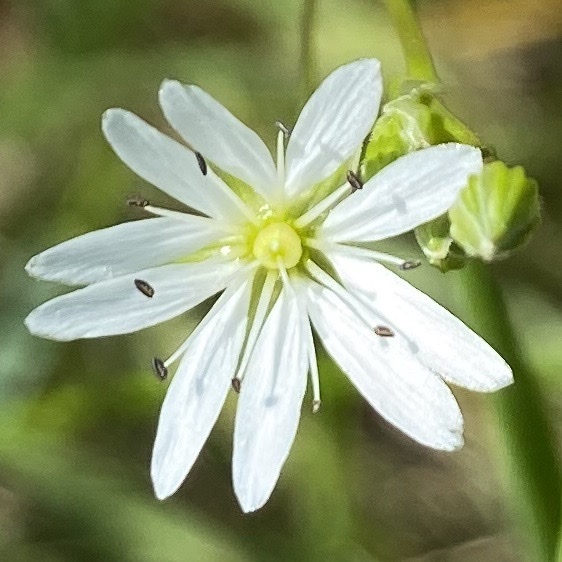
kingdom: Plantae
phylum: Tracheophyta
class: Magnoliopsida
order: Caryophyllales
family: Caryophyllaceae
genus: Stellaria
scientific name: Stellaria graminea
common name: Grass-like starwort
